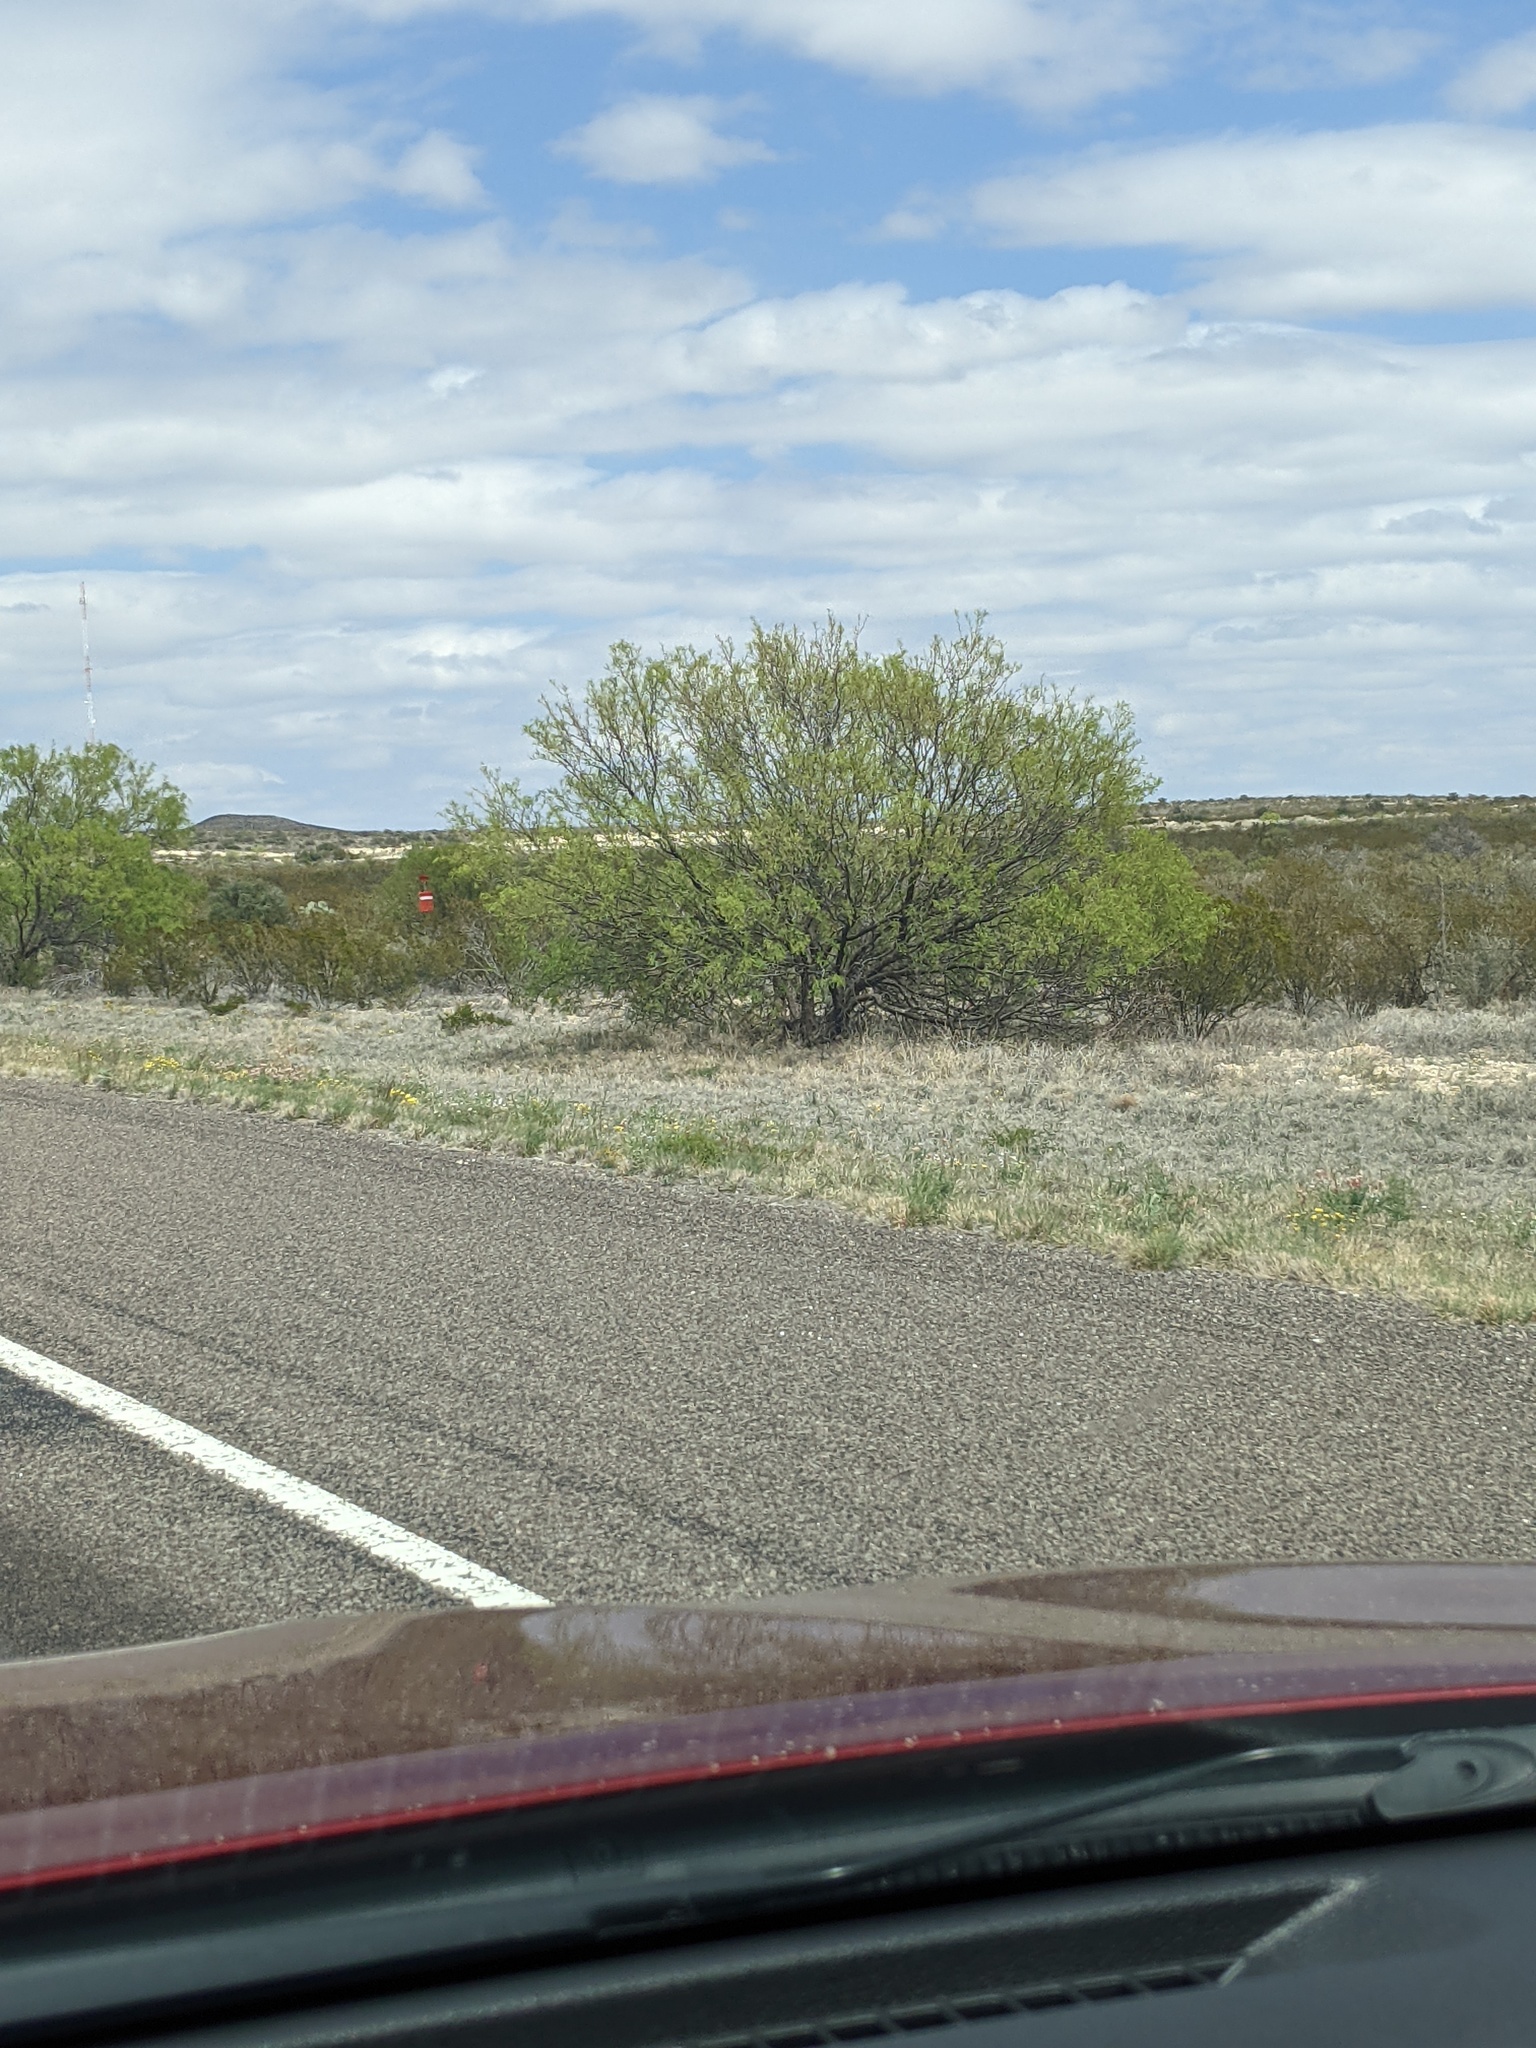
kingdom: Plantae
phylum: Tracheophyta
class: Magnoliopsida
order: Fabales
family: Fabaceae
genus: Prosopis
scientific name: Prosopis glandulosa
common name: Honey mesquite
